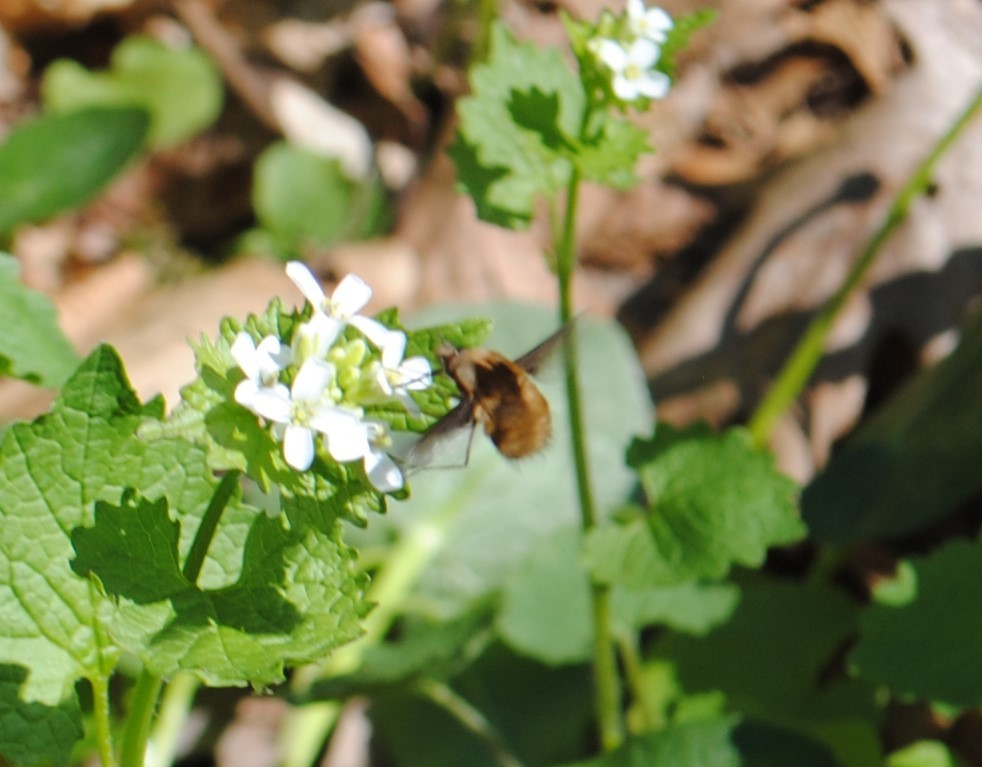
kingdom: Animalia
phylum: Arthropoda
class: Insecta
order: Diptera
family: Bombyliidae
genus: Bombylius
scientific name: Bombylius
